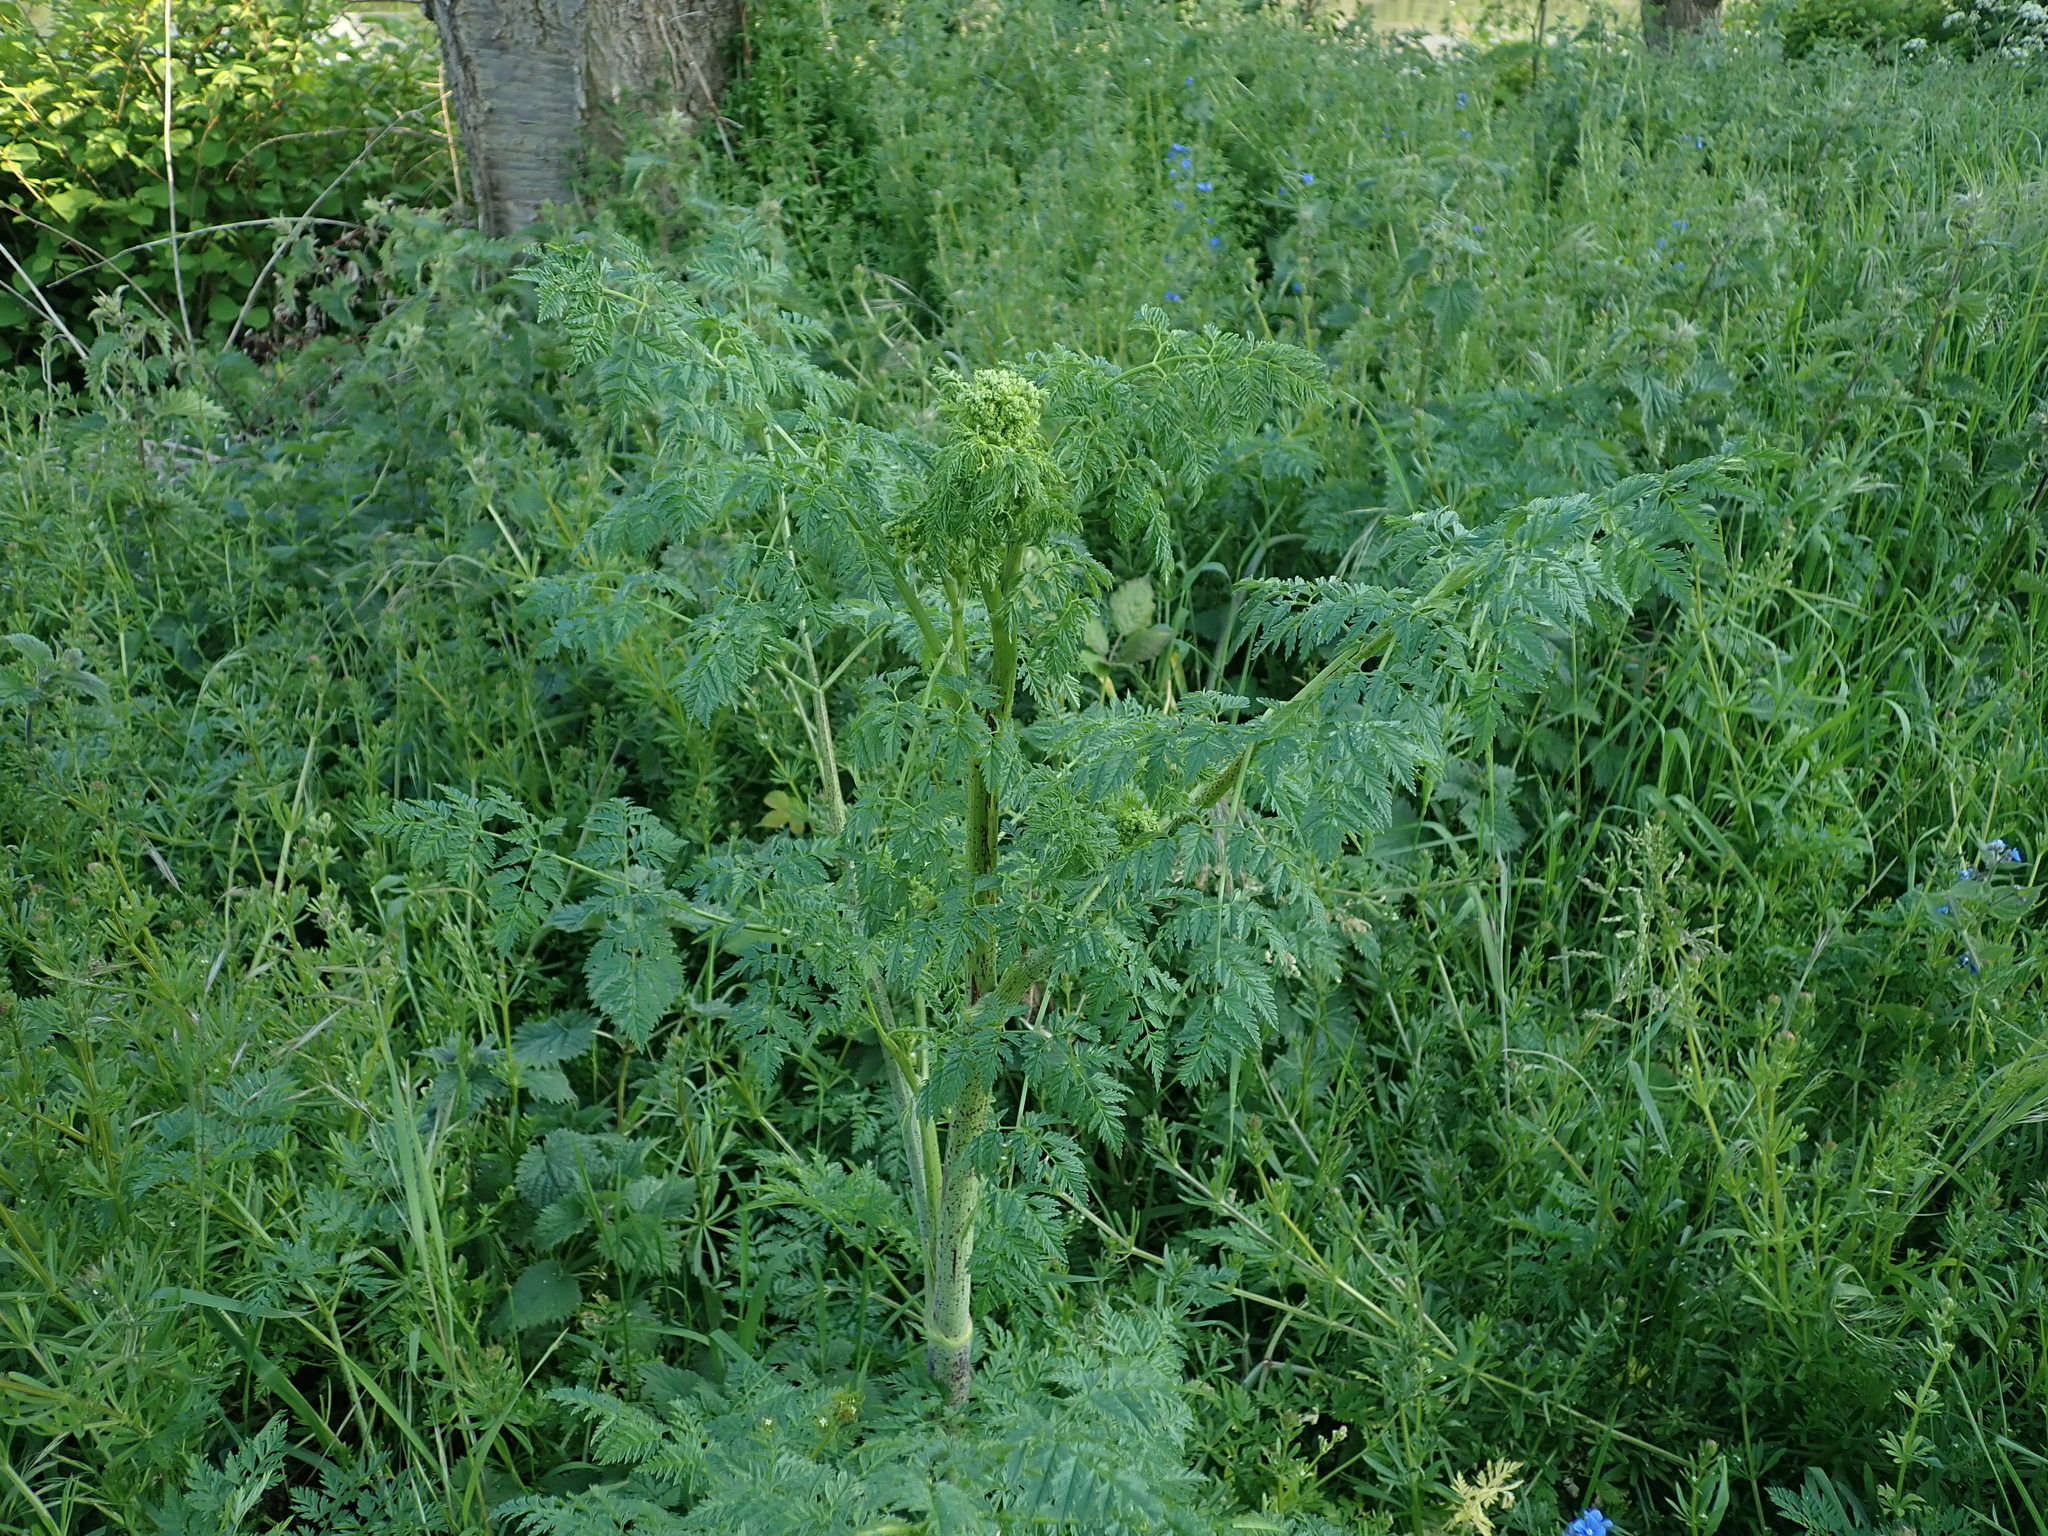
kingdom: Plantae
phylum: Tracheophyta
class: Magnoliopsida
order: Apiales
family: Apiaceae
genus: Conium
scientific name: Conium maculatum
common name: Hemlock
